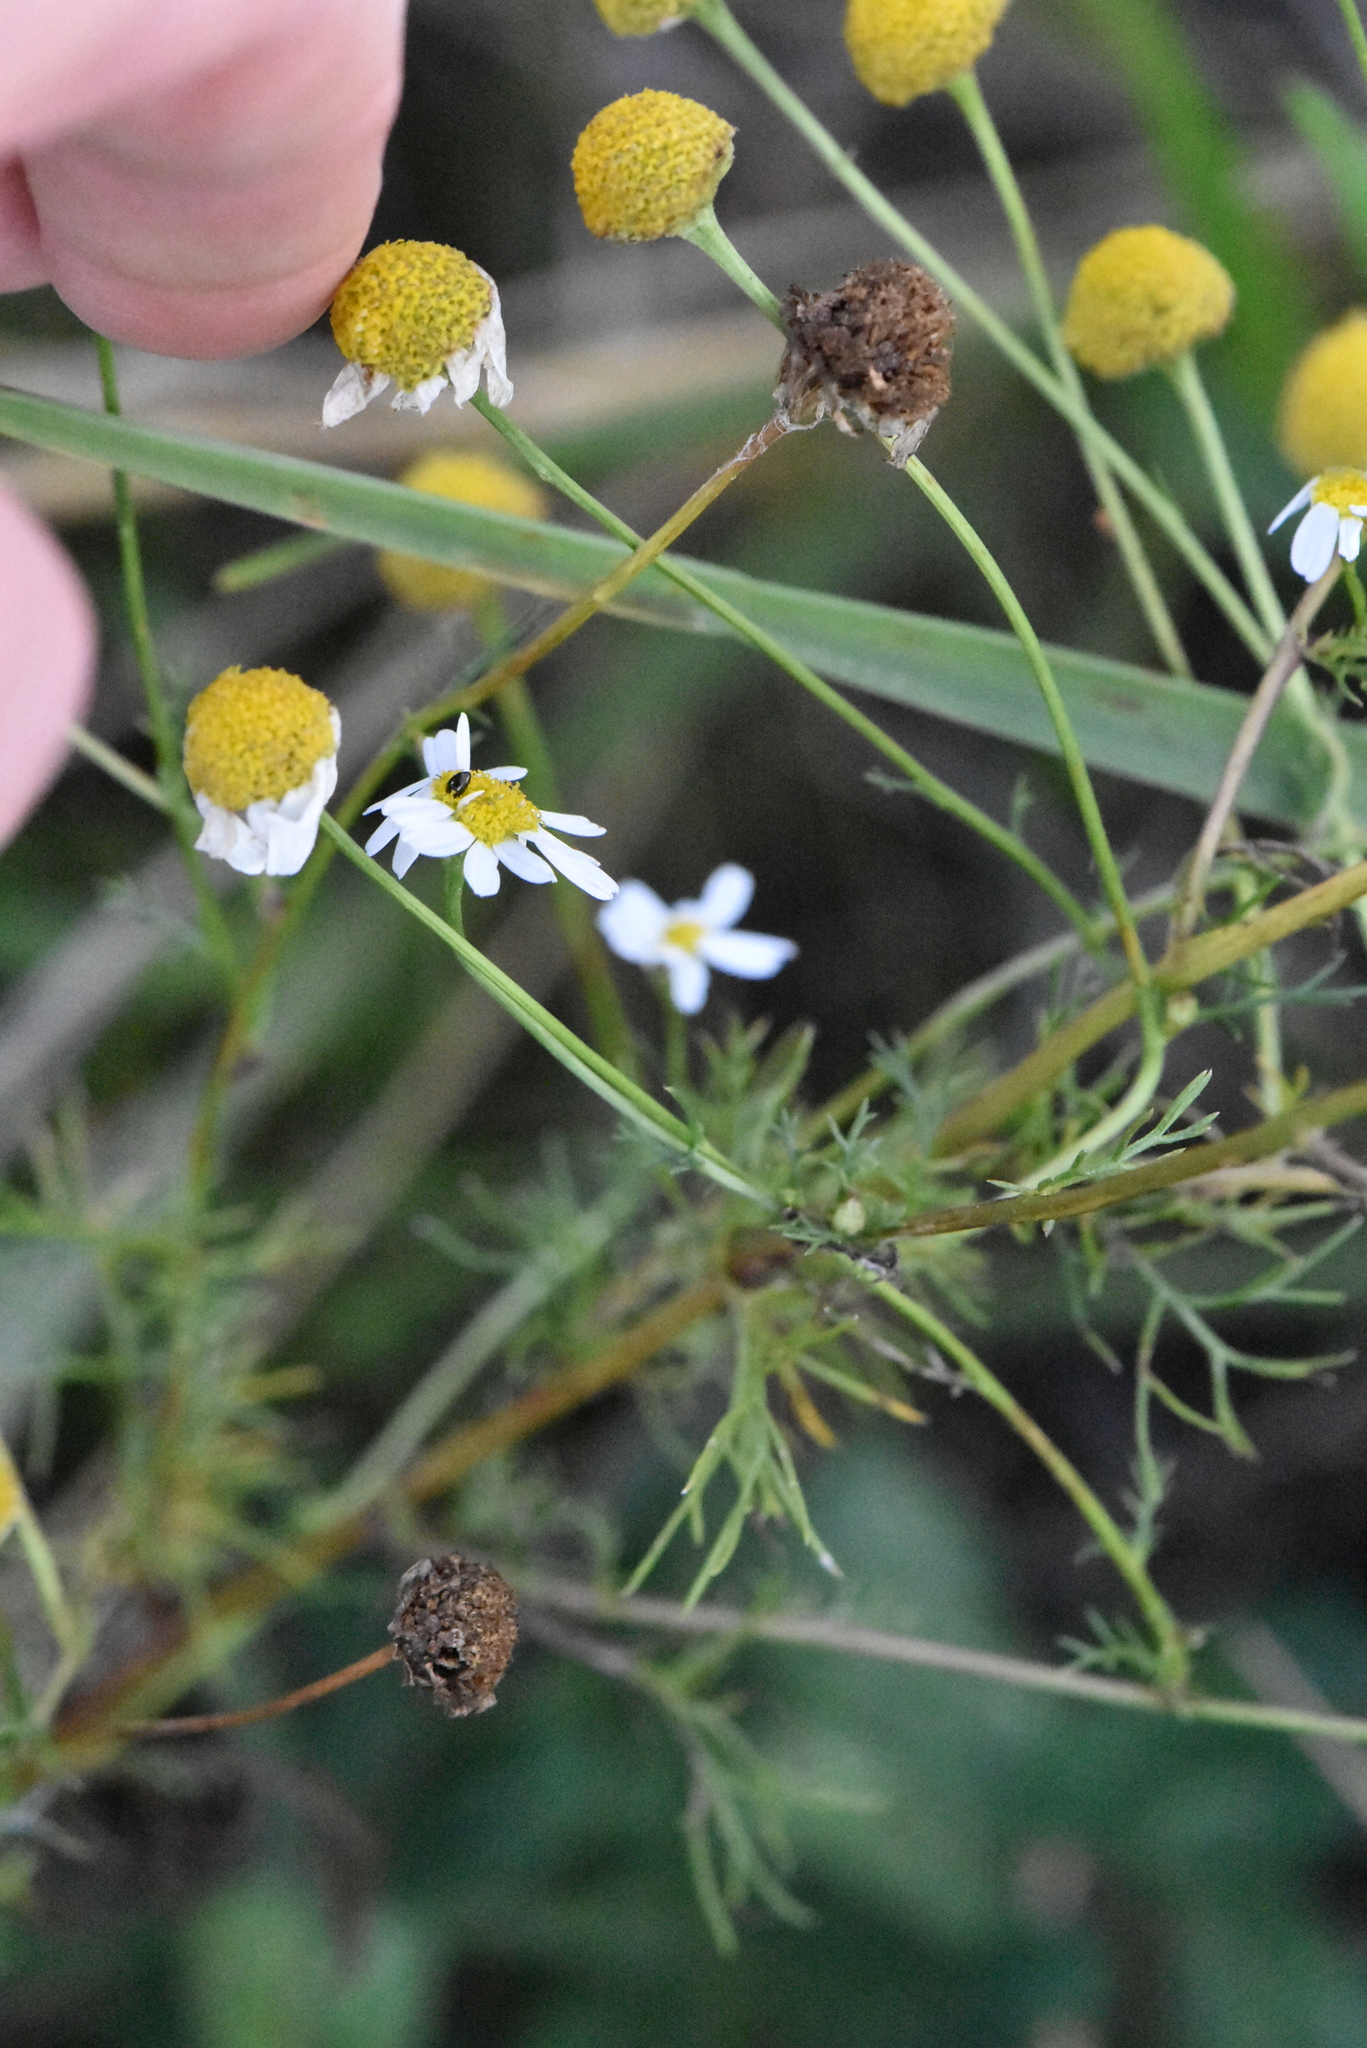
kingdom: Plantae
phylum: Tracheophyta
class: Magnoliopsida
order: Asterales
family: Asteraceae
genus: Tripleurospermum
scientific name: Tripleurospermum inodorum
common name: Scentless mayweed
